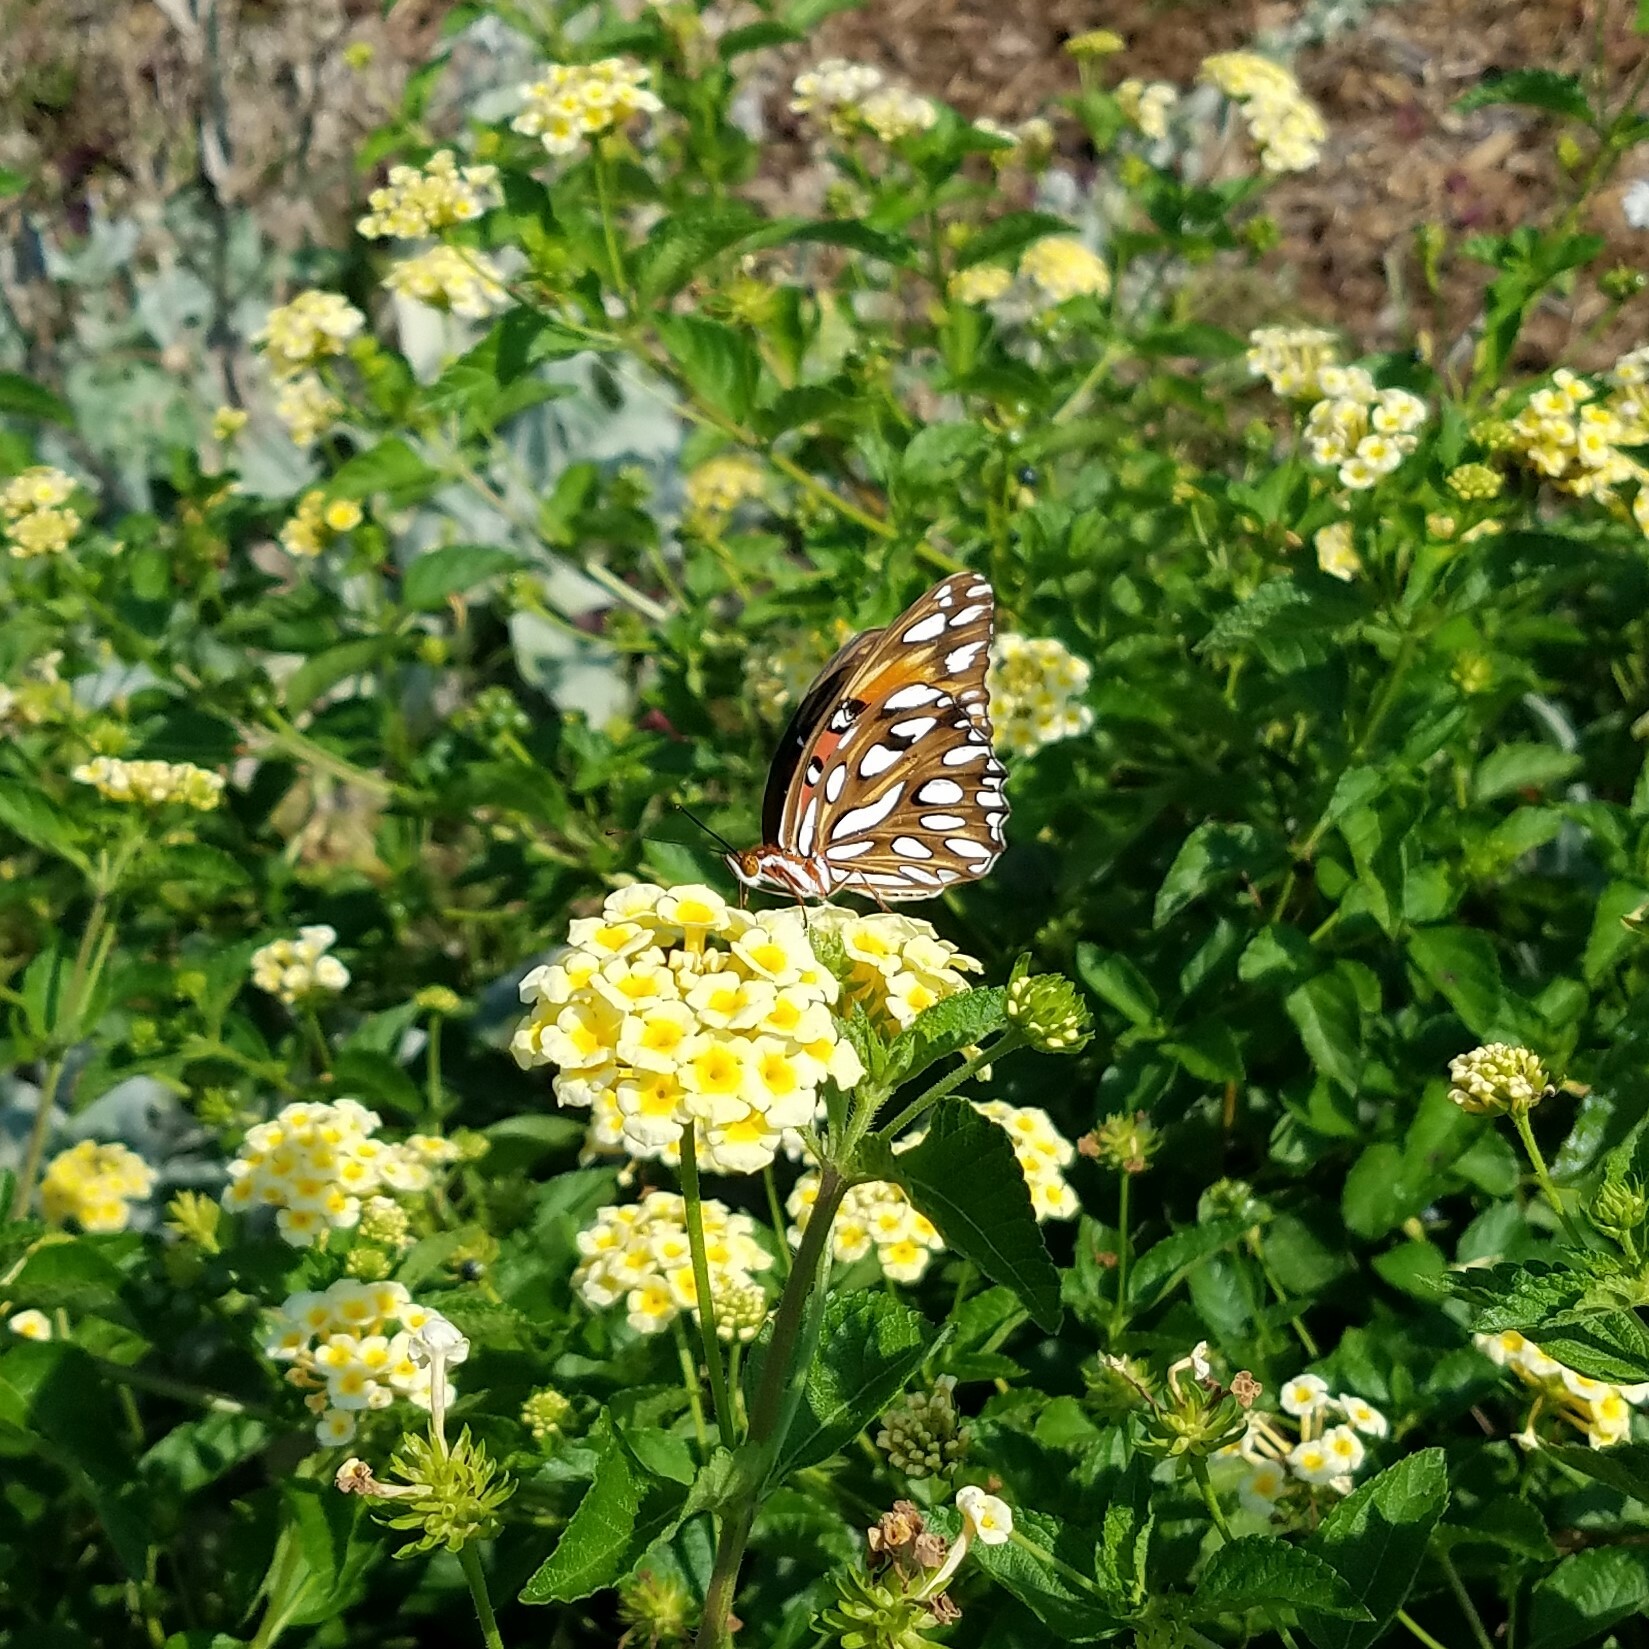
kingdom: Animalia
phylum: Arthropoda
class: Insecta
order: Lepidoptera
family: Nymphalidae
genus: Dione
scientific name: Dione vanillae
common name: Gulf fritillary
